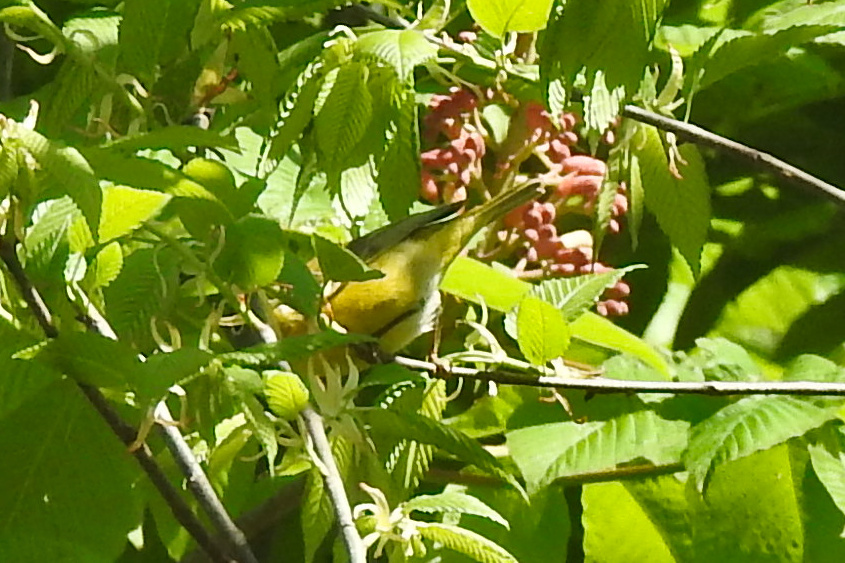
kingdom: Animalia
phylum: Chordata
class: Aves
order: Passeriformes
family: Parulidae
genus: Leiothlypis
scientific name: Leiothlypis ruficapilla
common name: Nashville warbler
